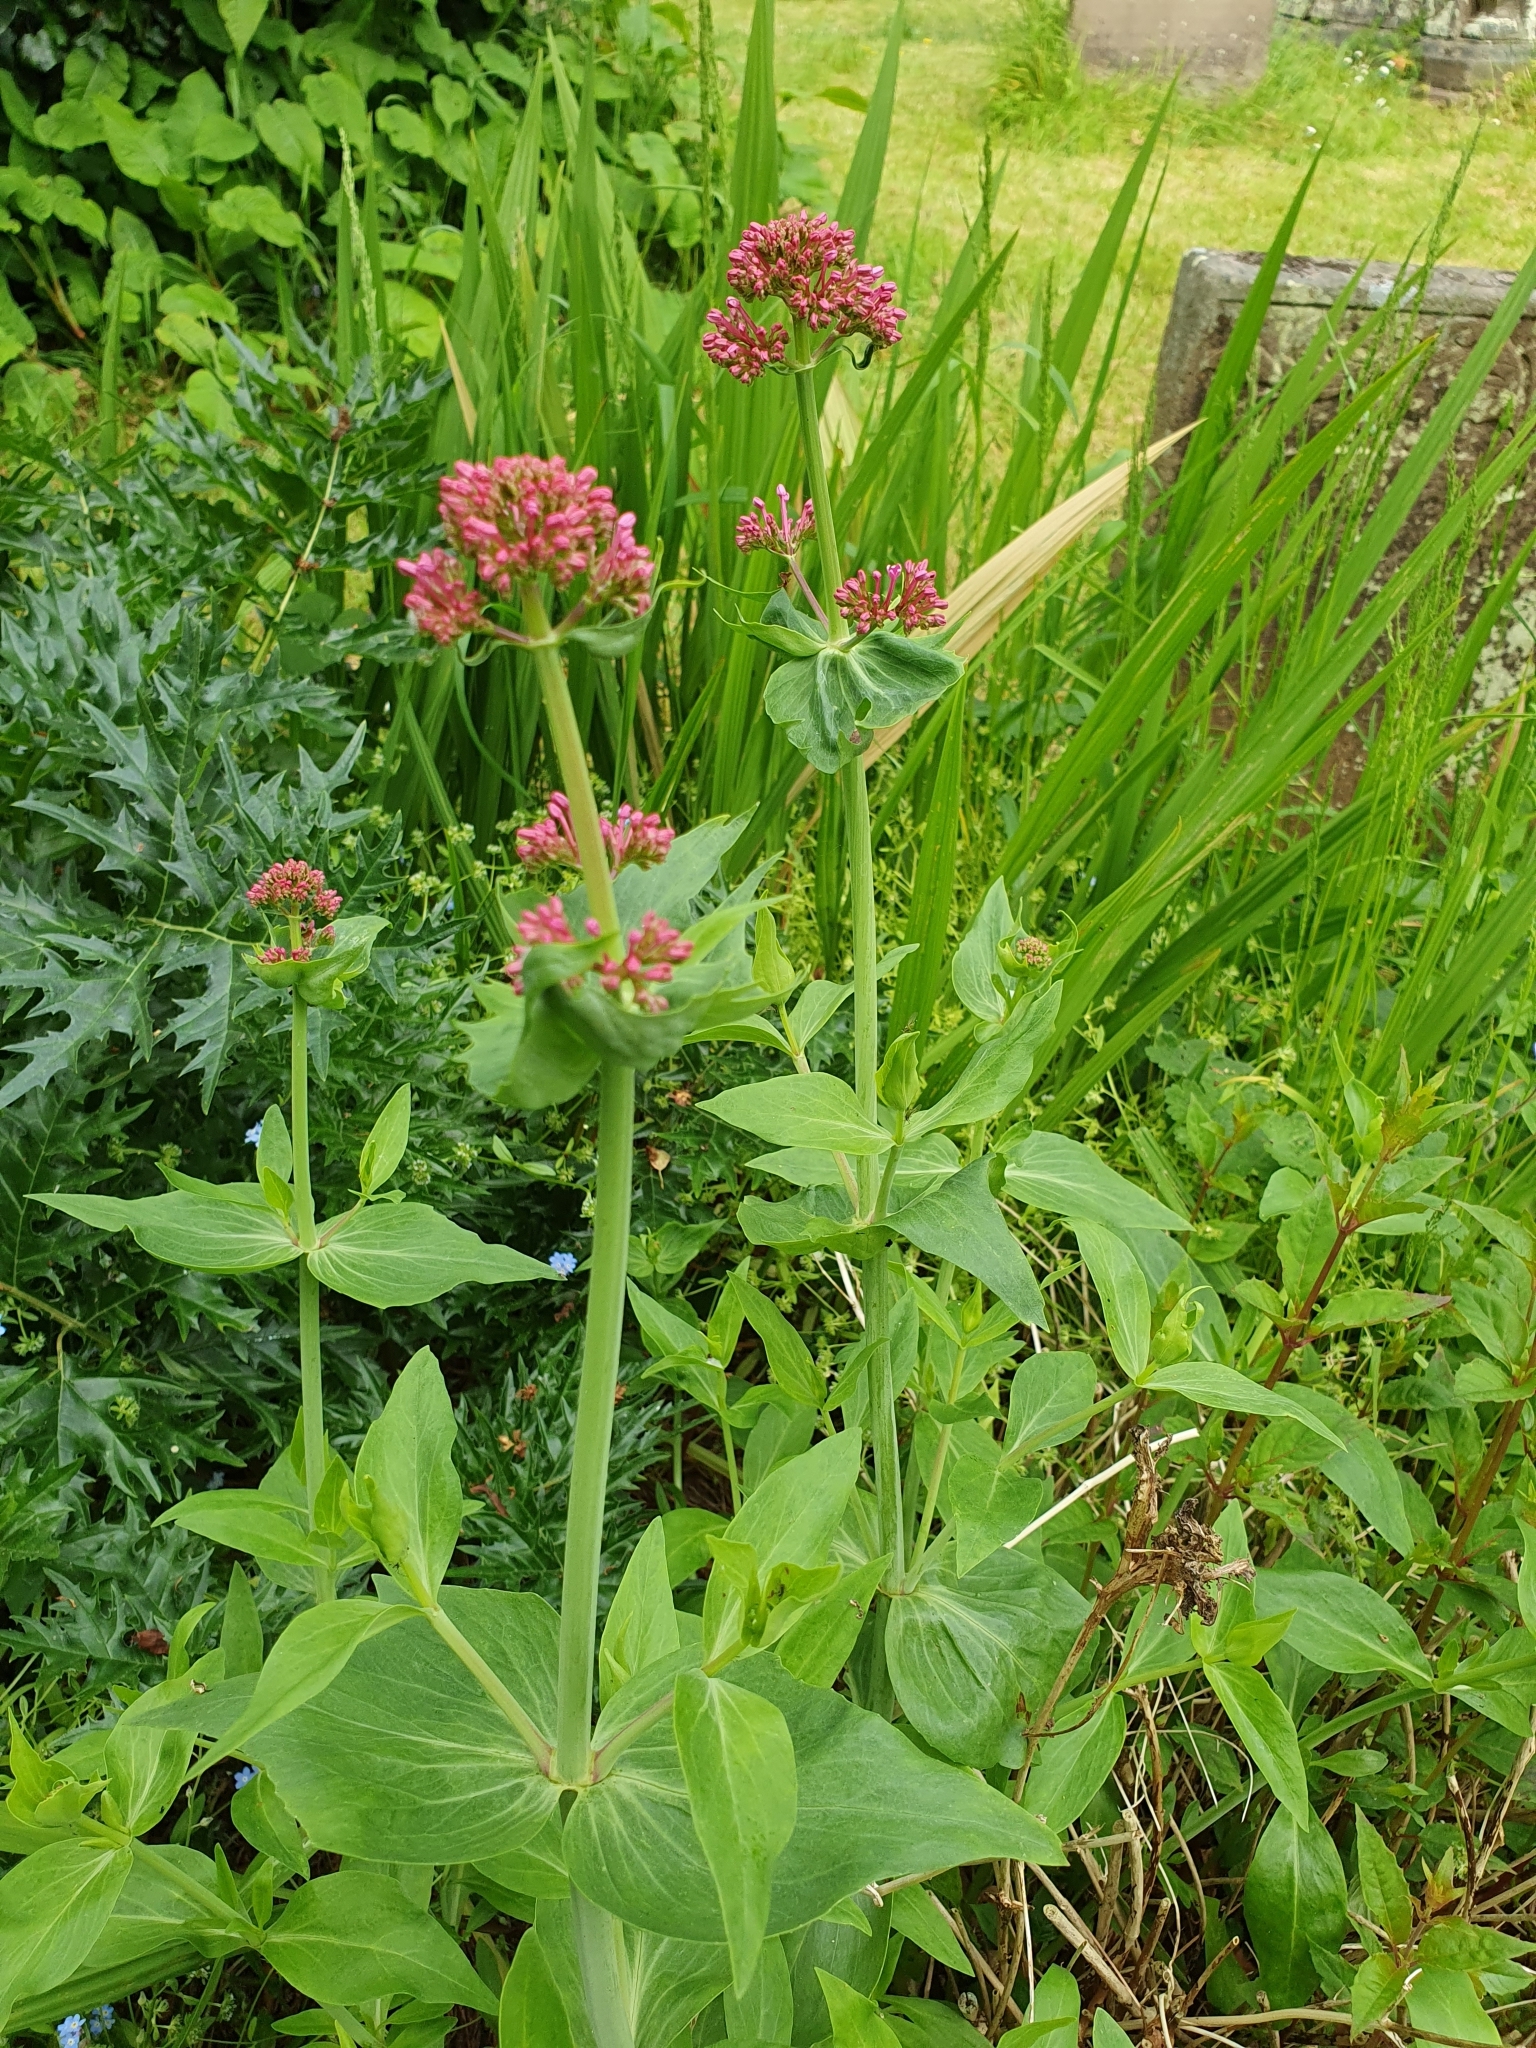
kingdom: Plantae
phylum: Tracheophyta
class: Magnoliopsida
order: Dipsacales
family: Caprifoliaceae
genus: Centranthus
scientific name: Centranthus ruber
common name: Red valerian
